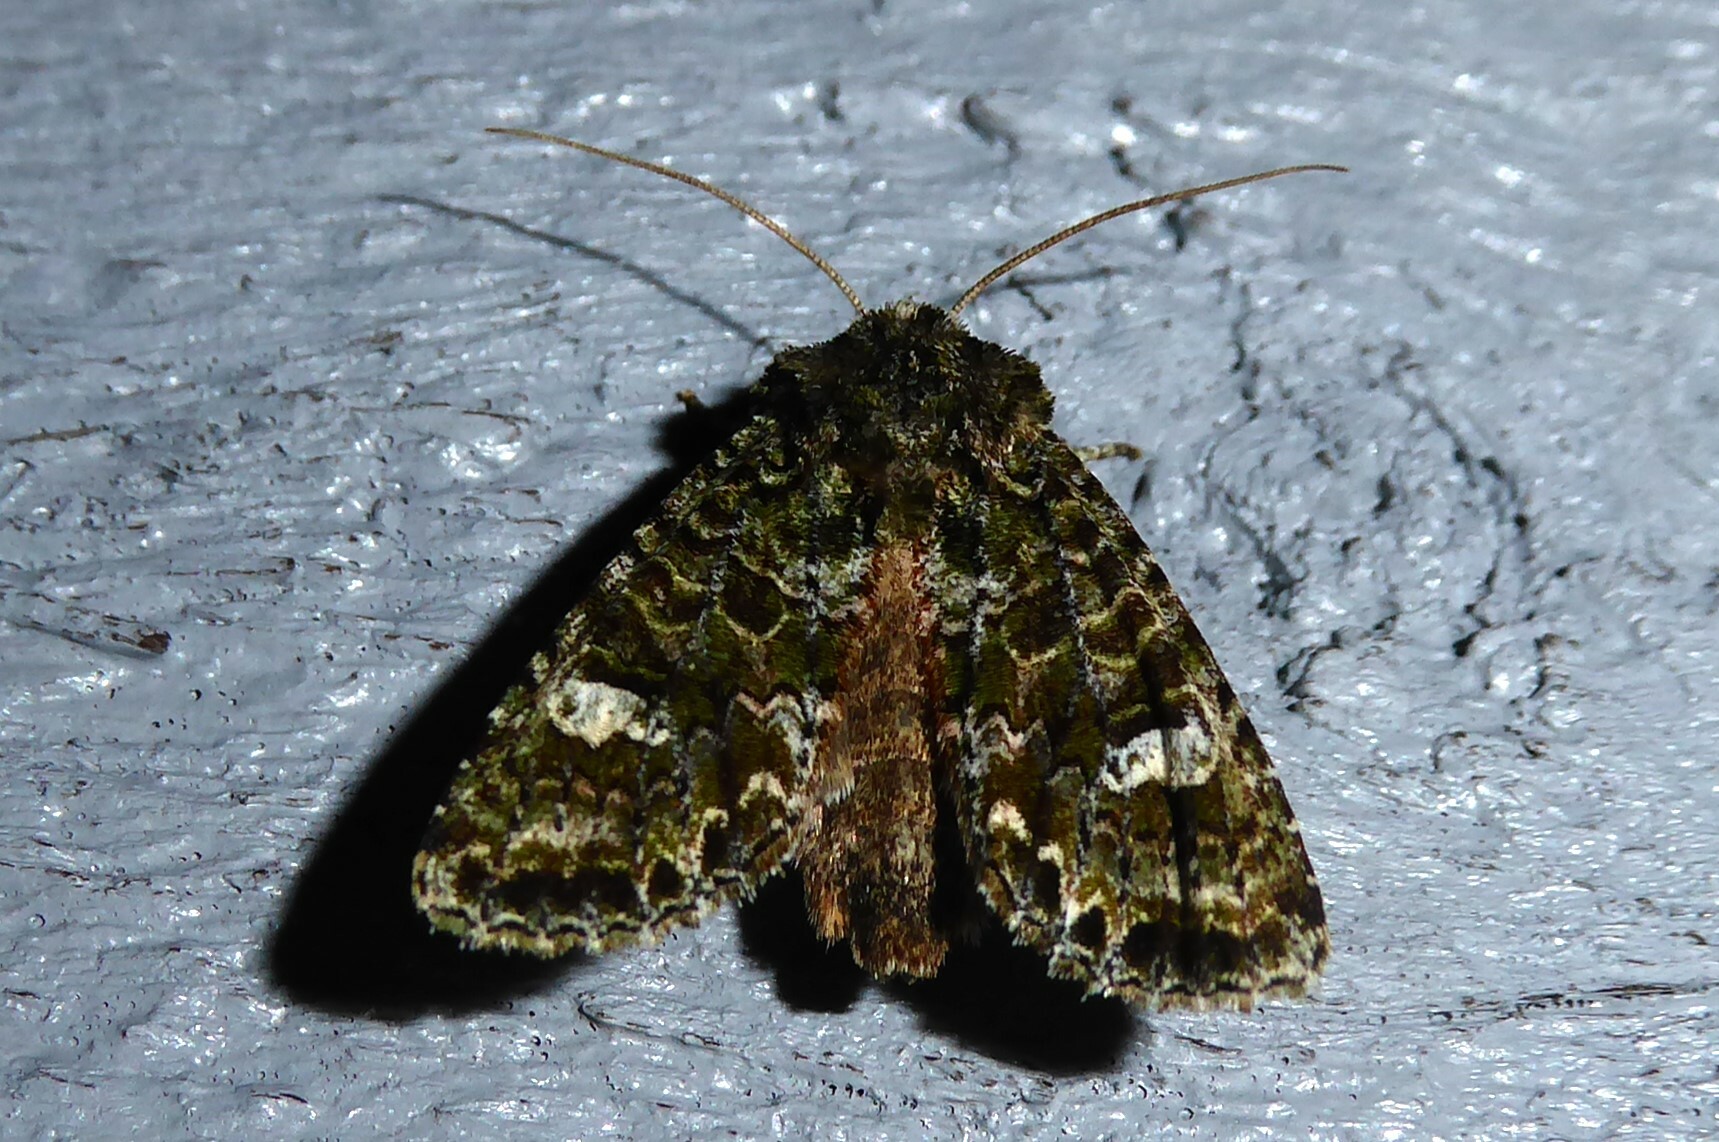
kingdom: Animalia
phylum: Arthropoda
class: Insecta
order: Lepidoptera
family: Noctuidae
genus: Ichneutica
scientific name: Ichneutica
